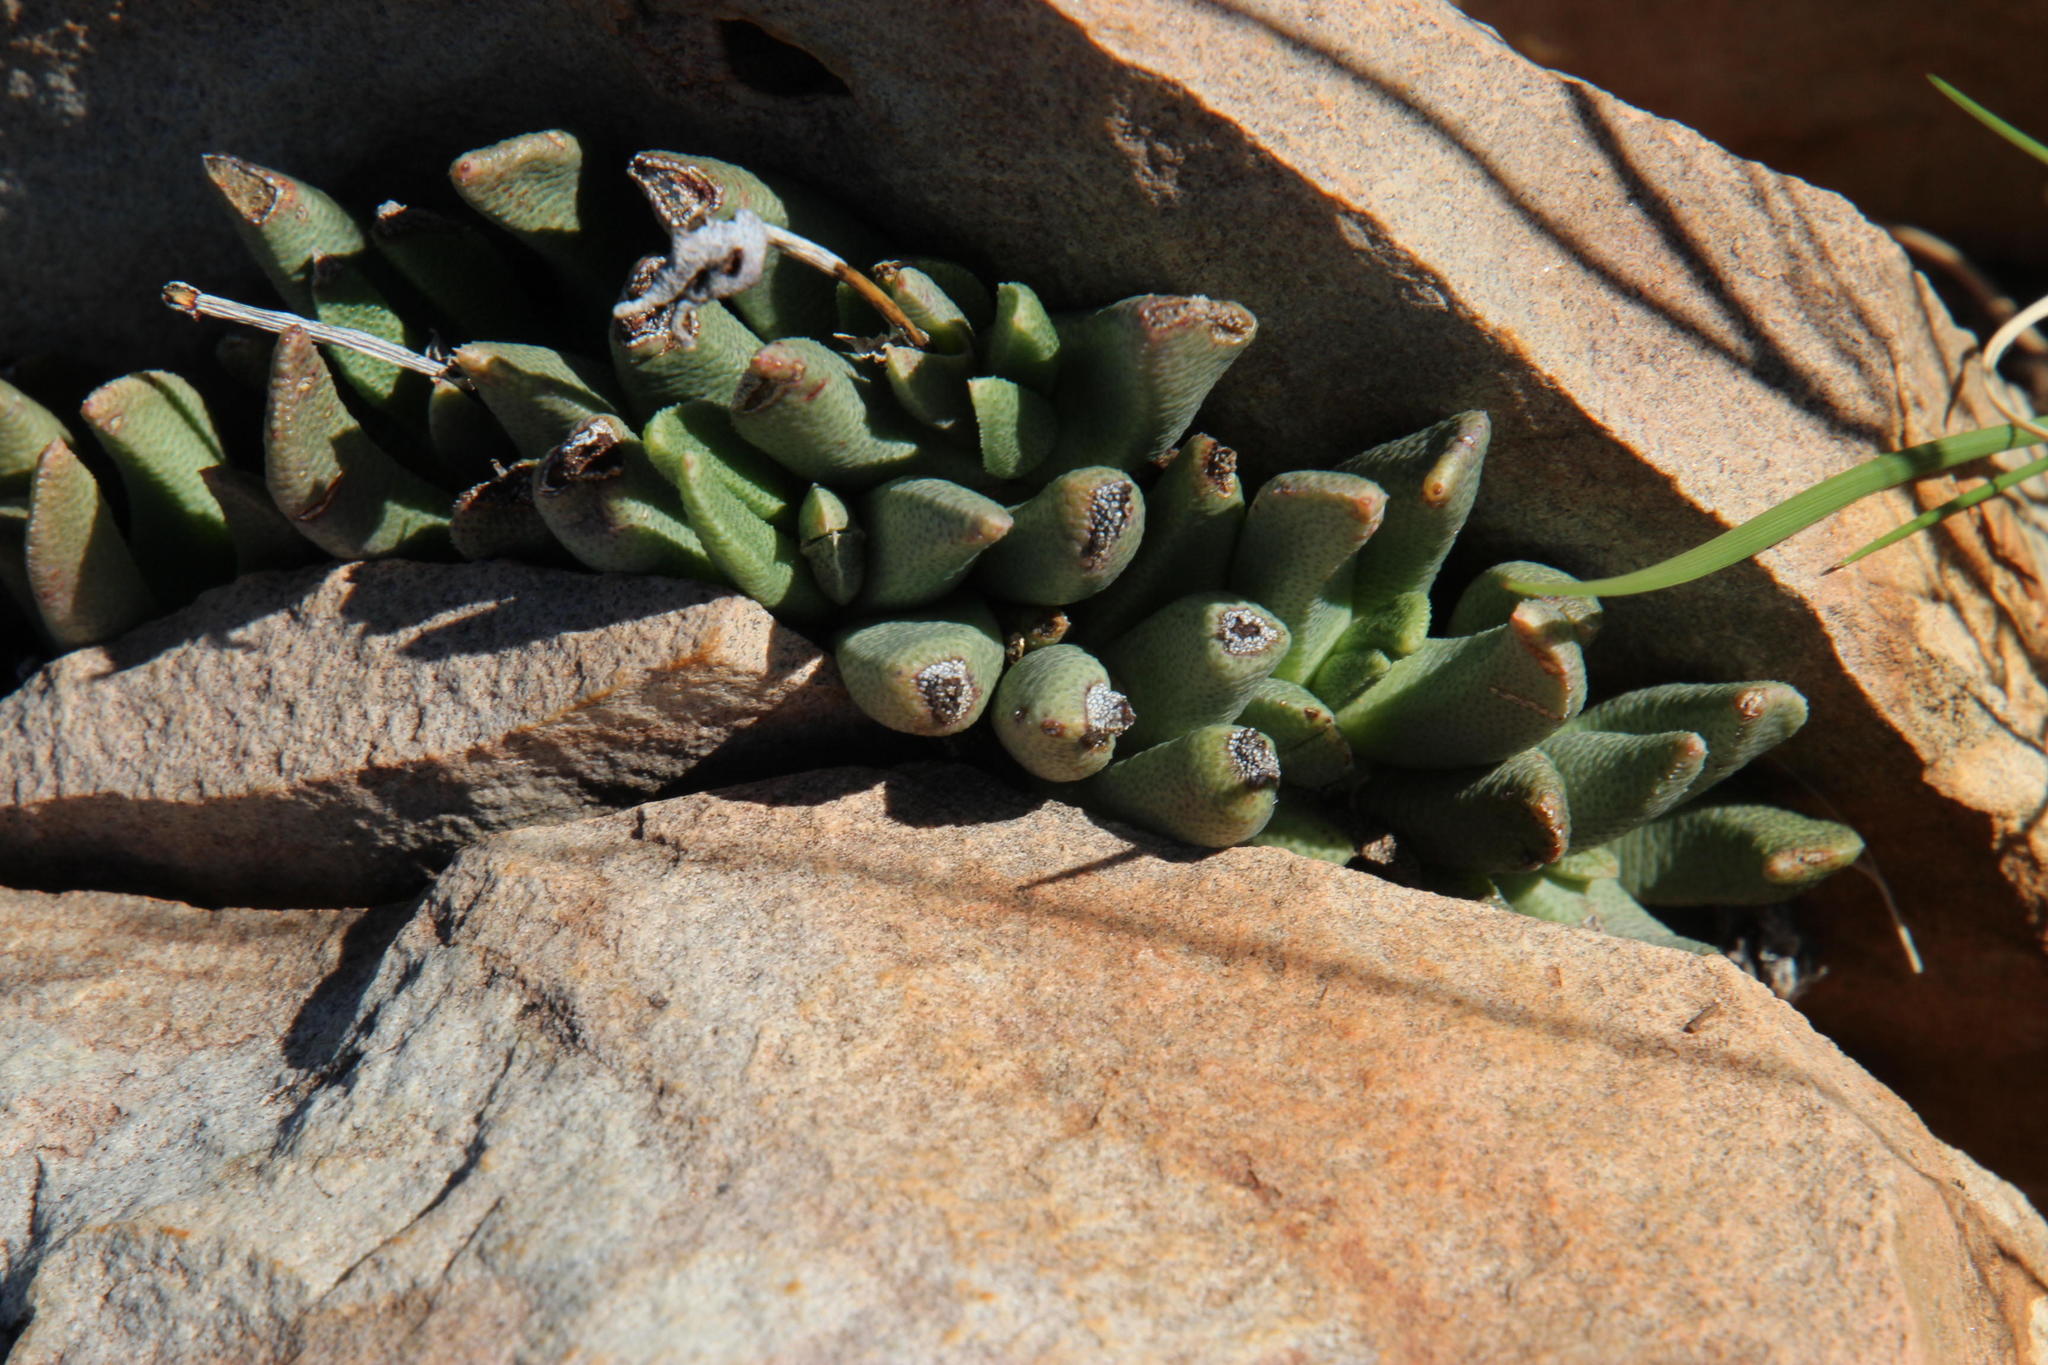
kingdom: Plantae
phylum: Tracheophyta
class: Magnoliopsida
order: Caryophyllales
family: Aizoaceae
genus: Dracophilus
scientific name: Dracophilus Hereroa glenensis
